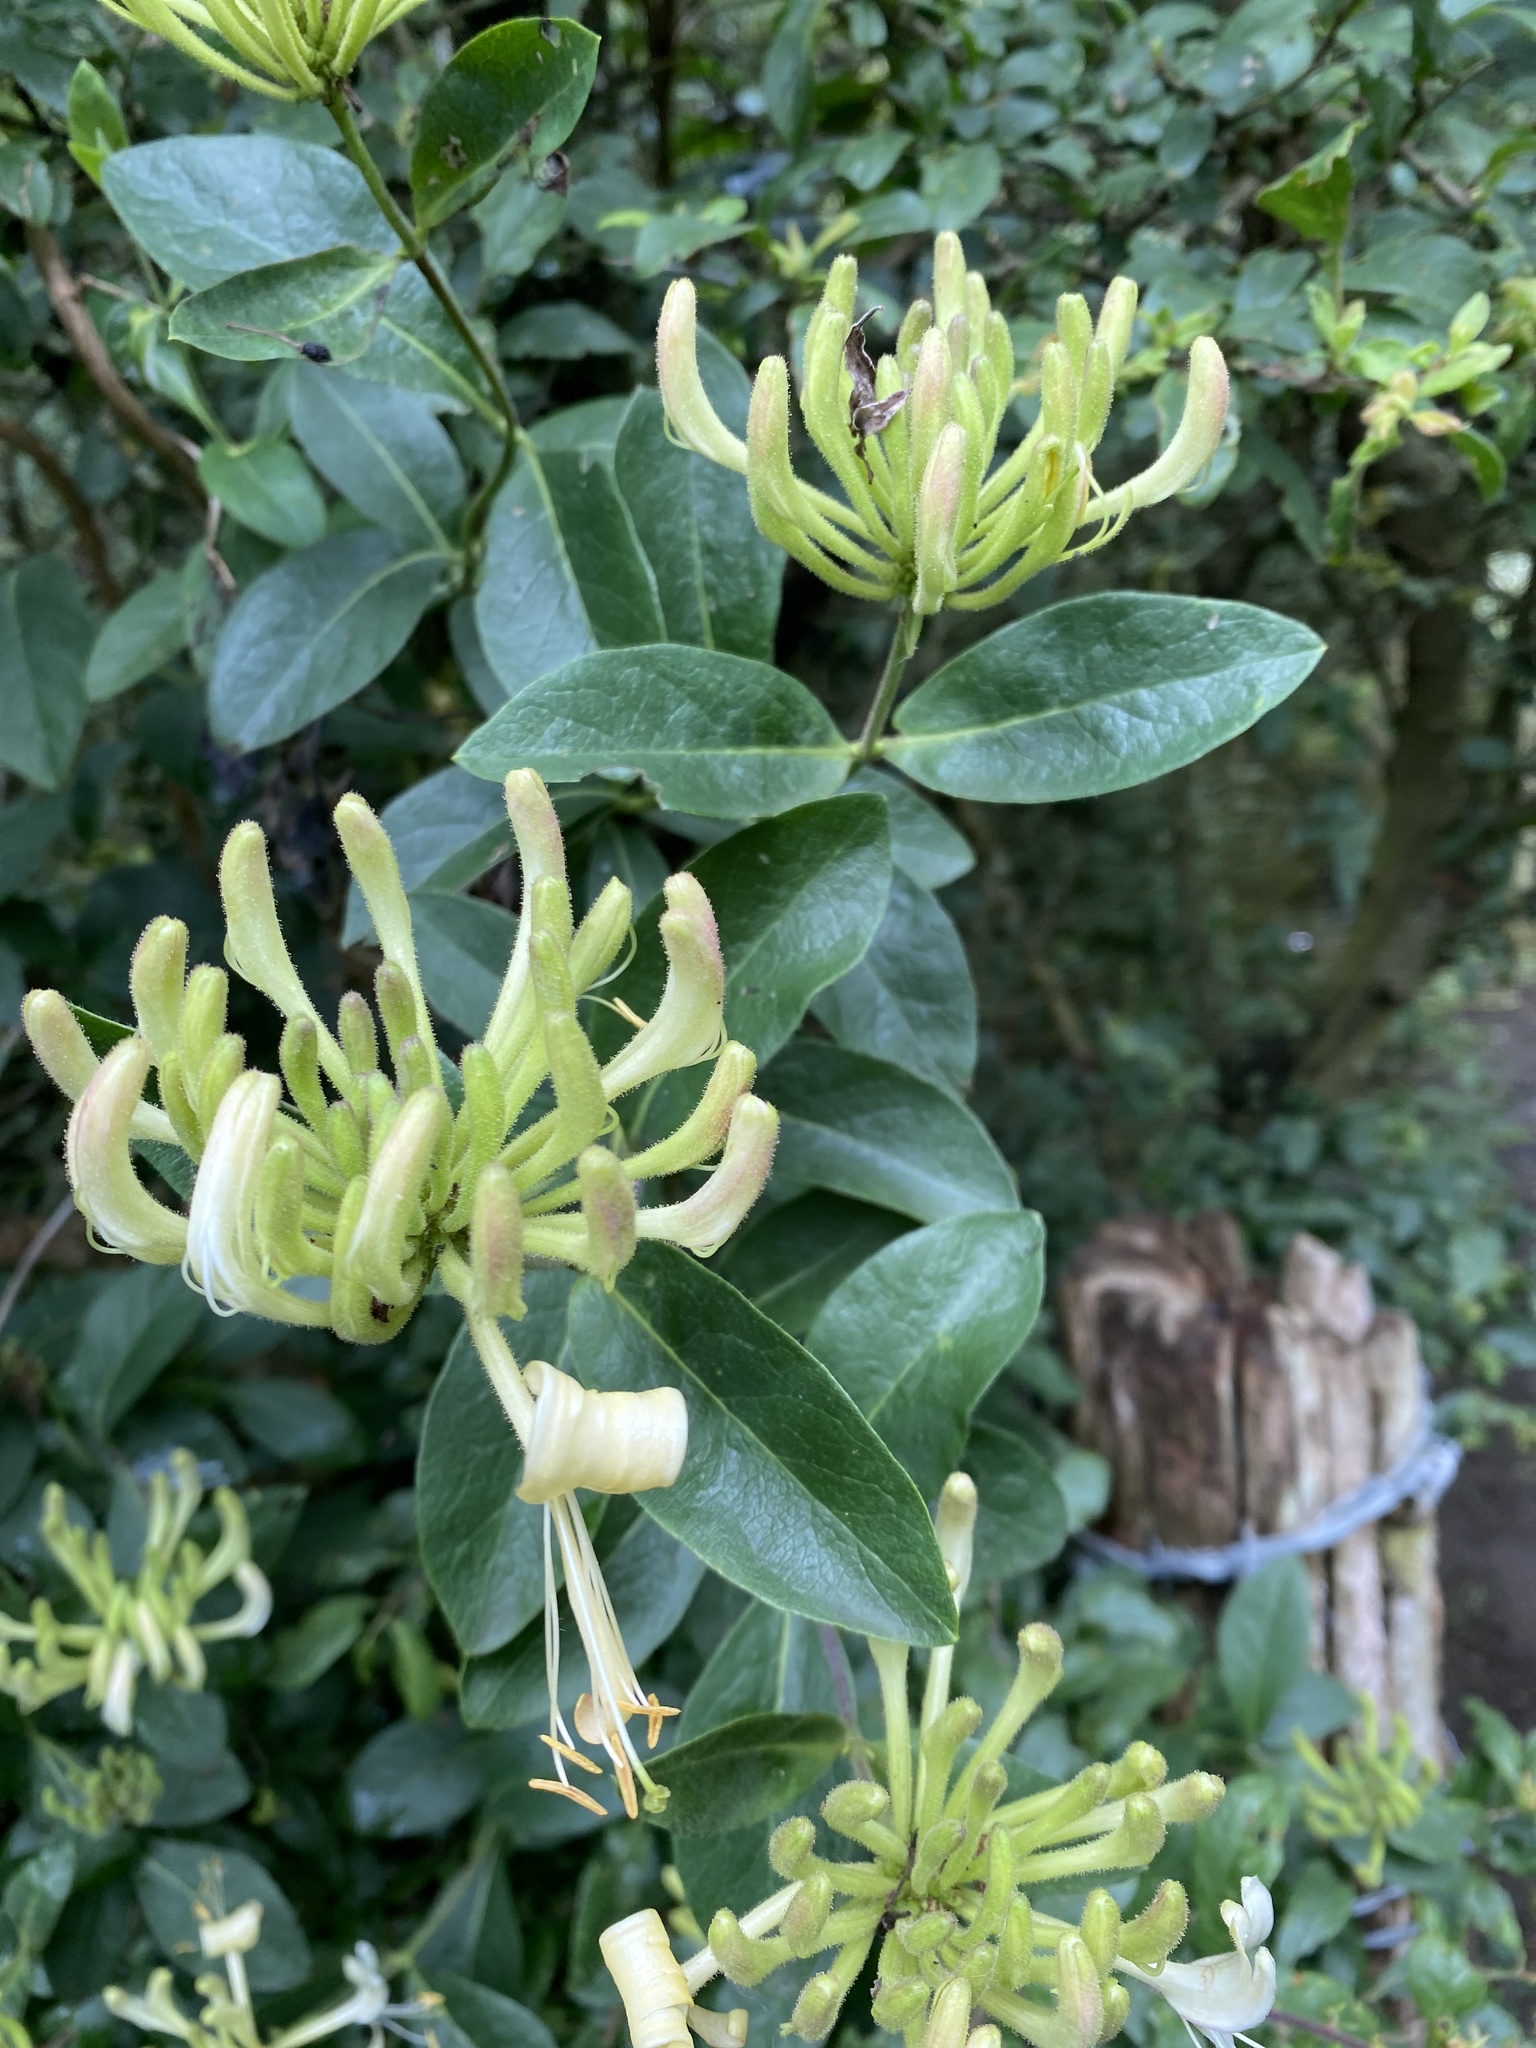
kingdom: Plantae
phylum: Tracheophyta
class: Magnoliopsida
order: Dipsacales
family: Caprifoliaceae
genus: Lonicera
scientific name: Lonicera periclymenum
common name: European honeysuckle
